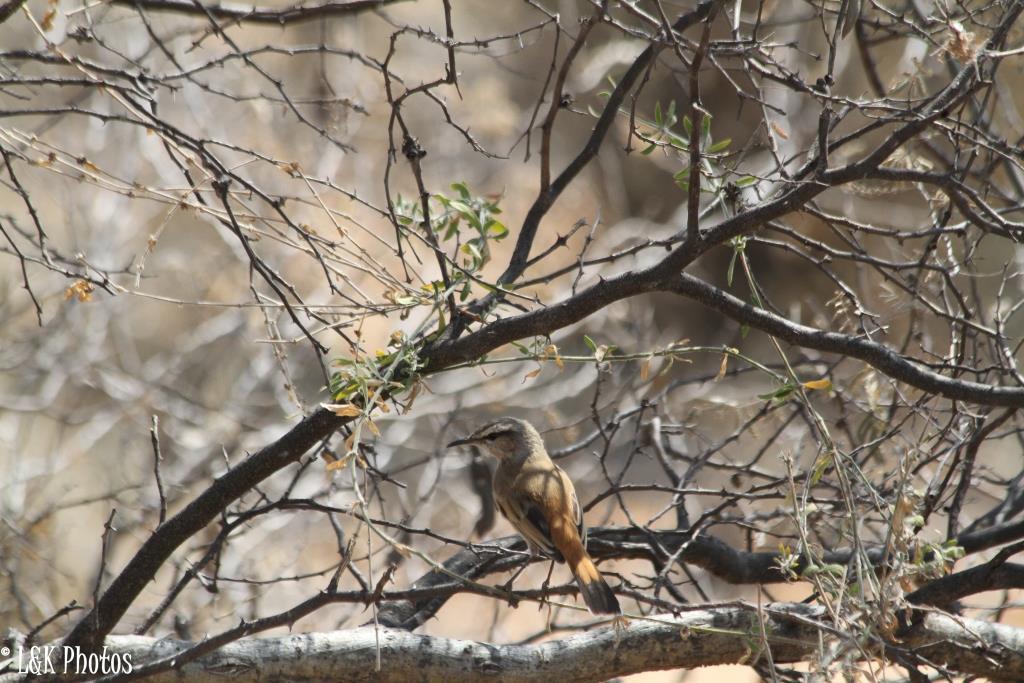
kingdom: Animalia
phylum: Chordata
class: Aves
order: Passeriformes
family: Muscicapidae
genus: Erythropygia
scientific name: Erythropygia paena
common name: Kalahari scrub robin
